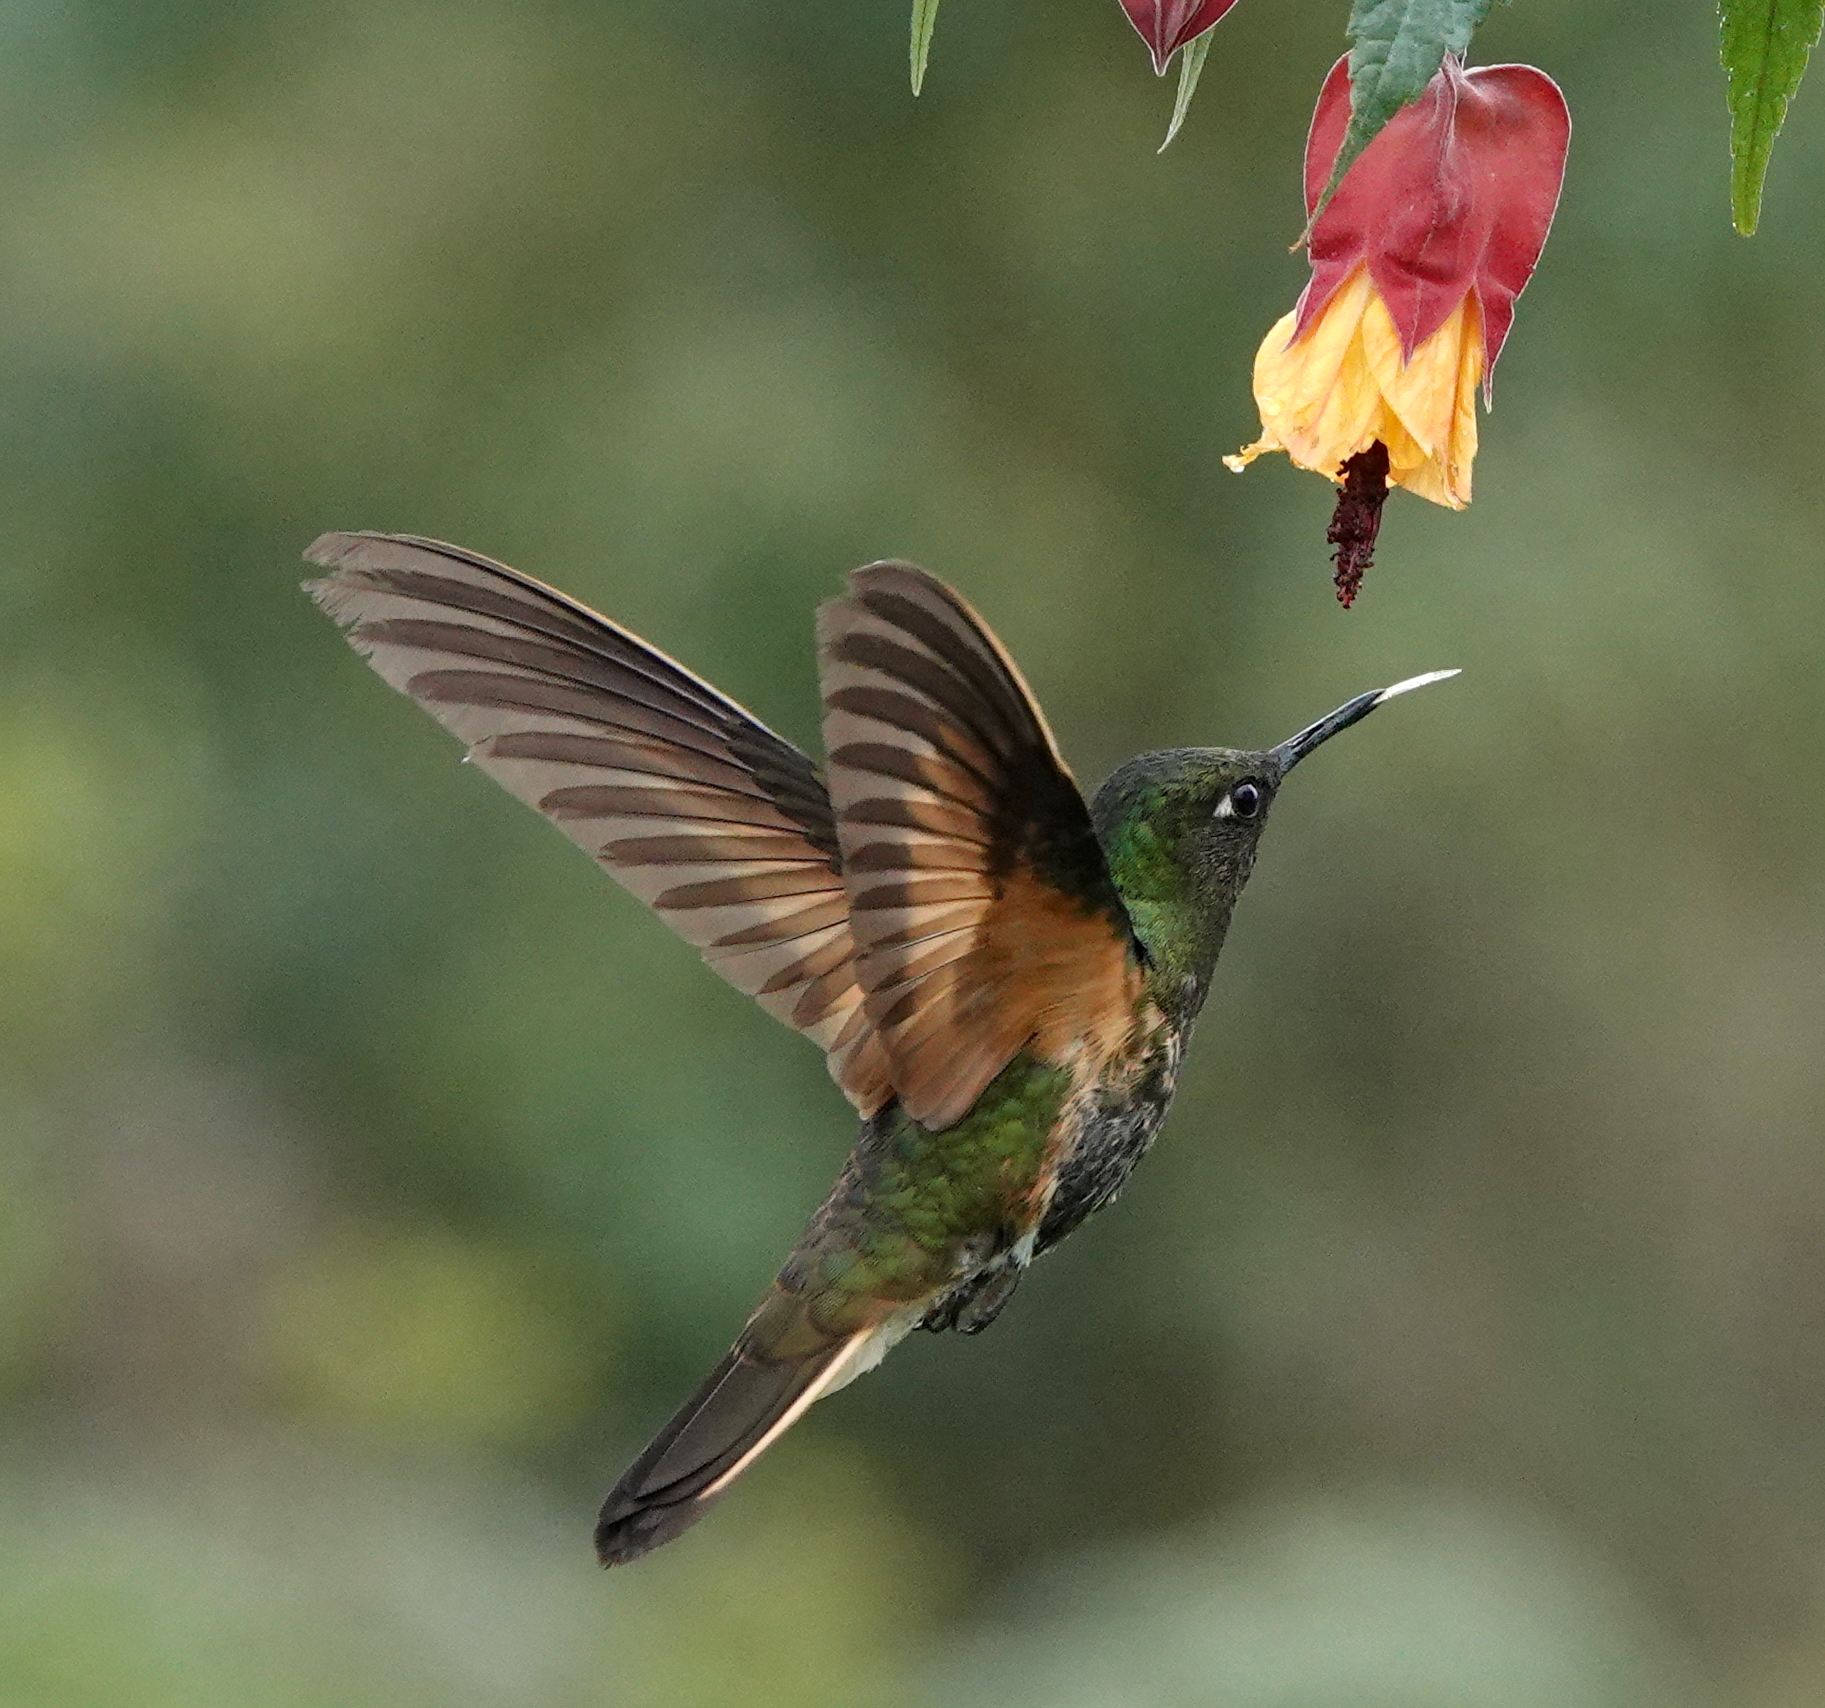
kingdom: Animalia
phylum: Chordata
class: Aves
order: Apodiformes
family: Trochilidae
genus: Boissonneaua
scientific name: Boissonneaua flavescens
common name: Buff-tailed coronet
